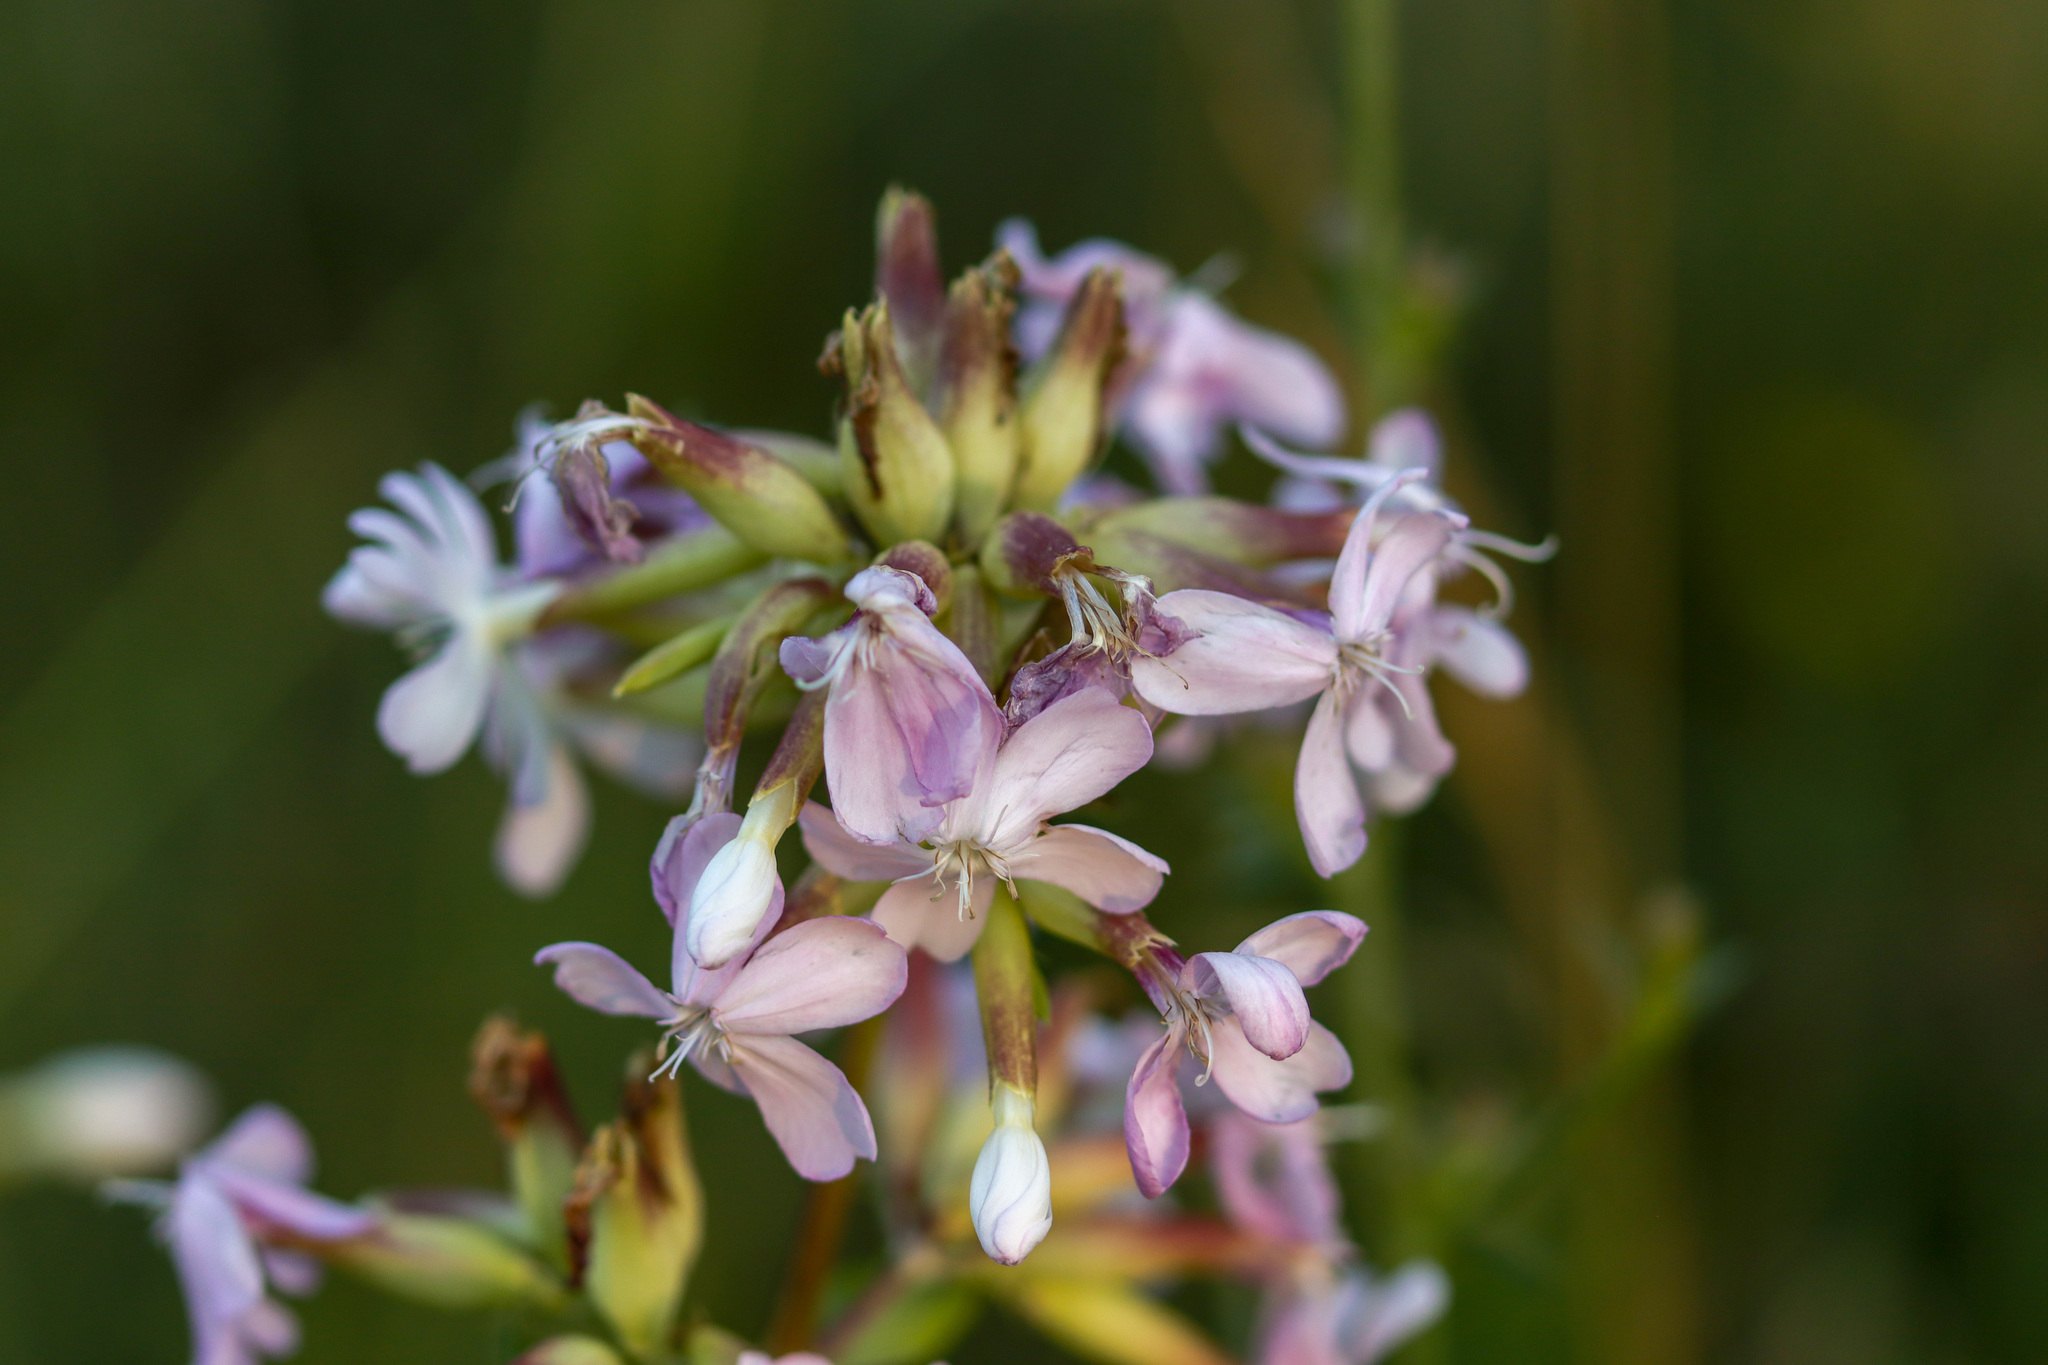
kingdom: Plantae
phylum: Tracheophyta
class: Magnoliopsida
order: Caryophyllales
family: Caryophyllaceae
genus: Saponaria
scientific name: Saponaria officinalis
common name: Soapwort
